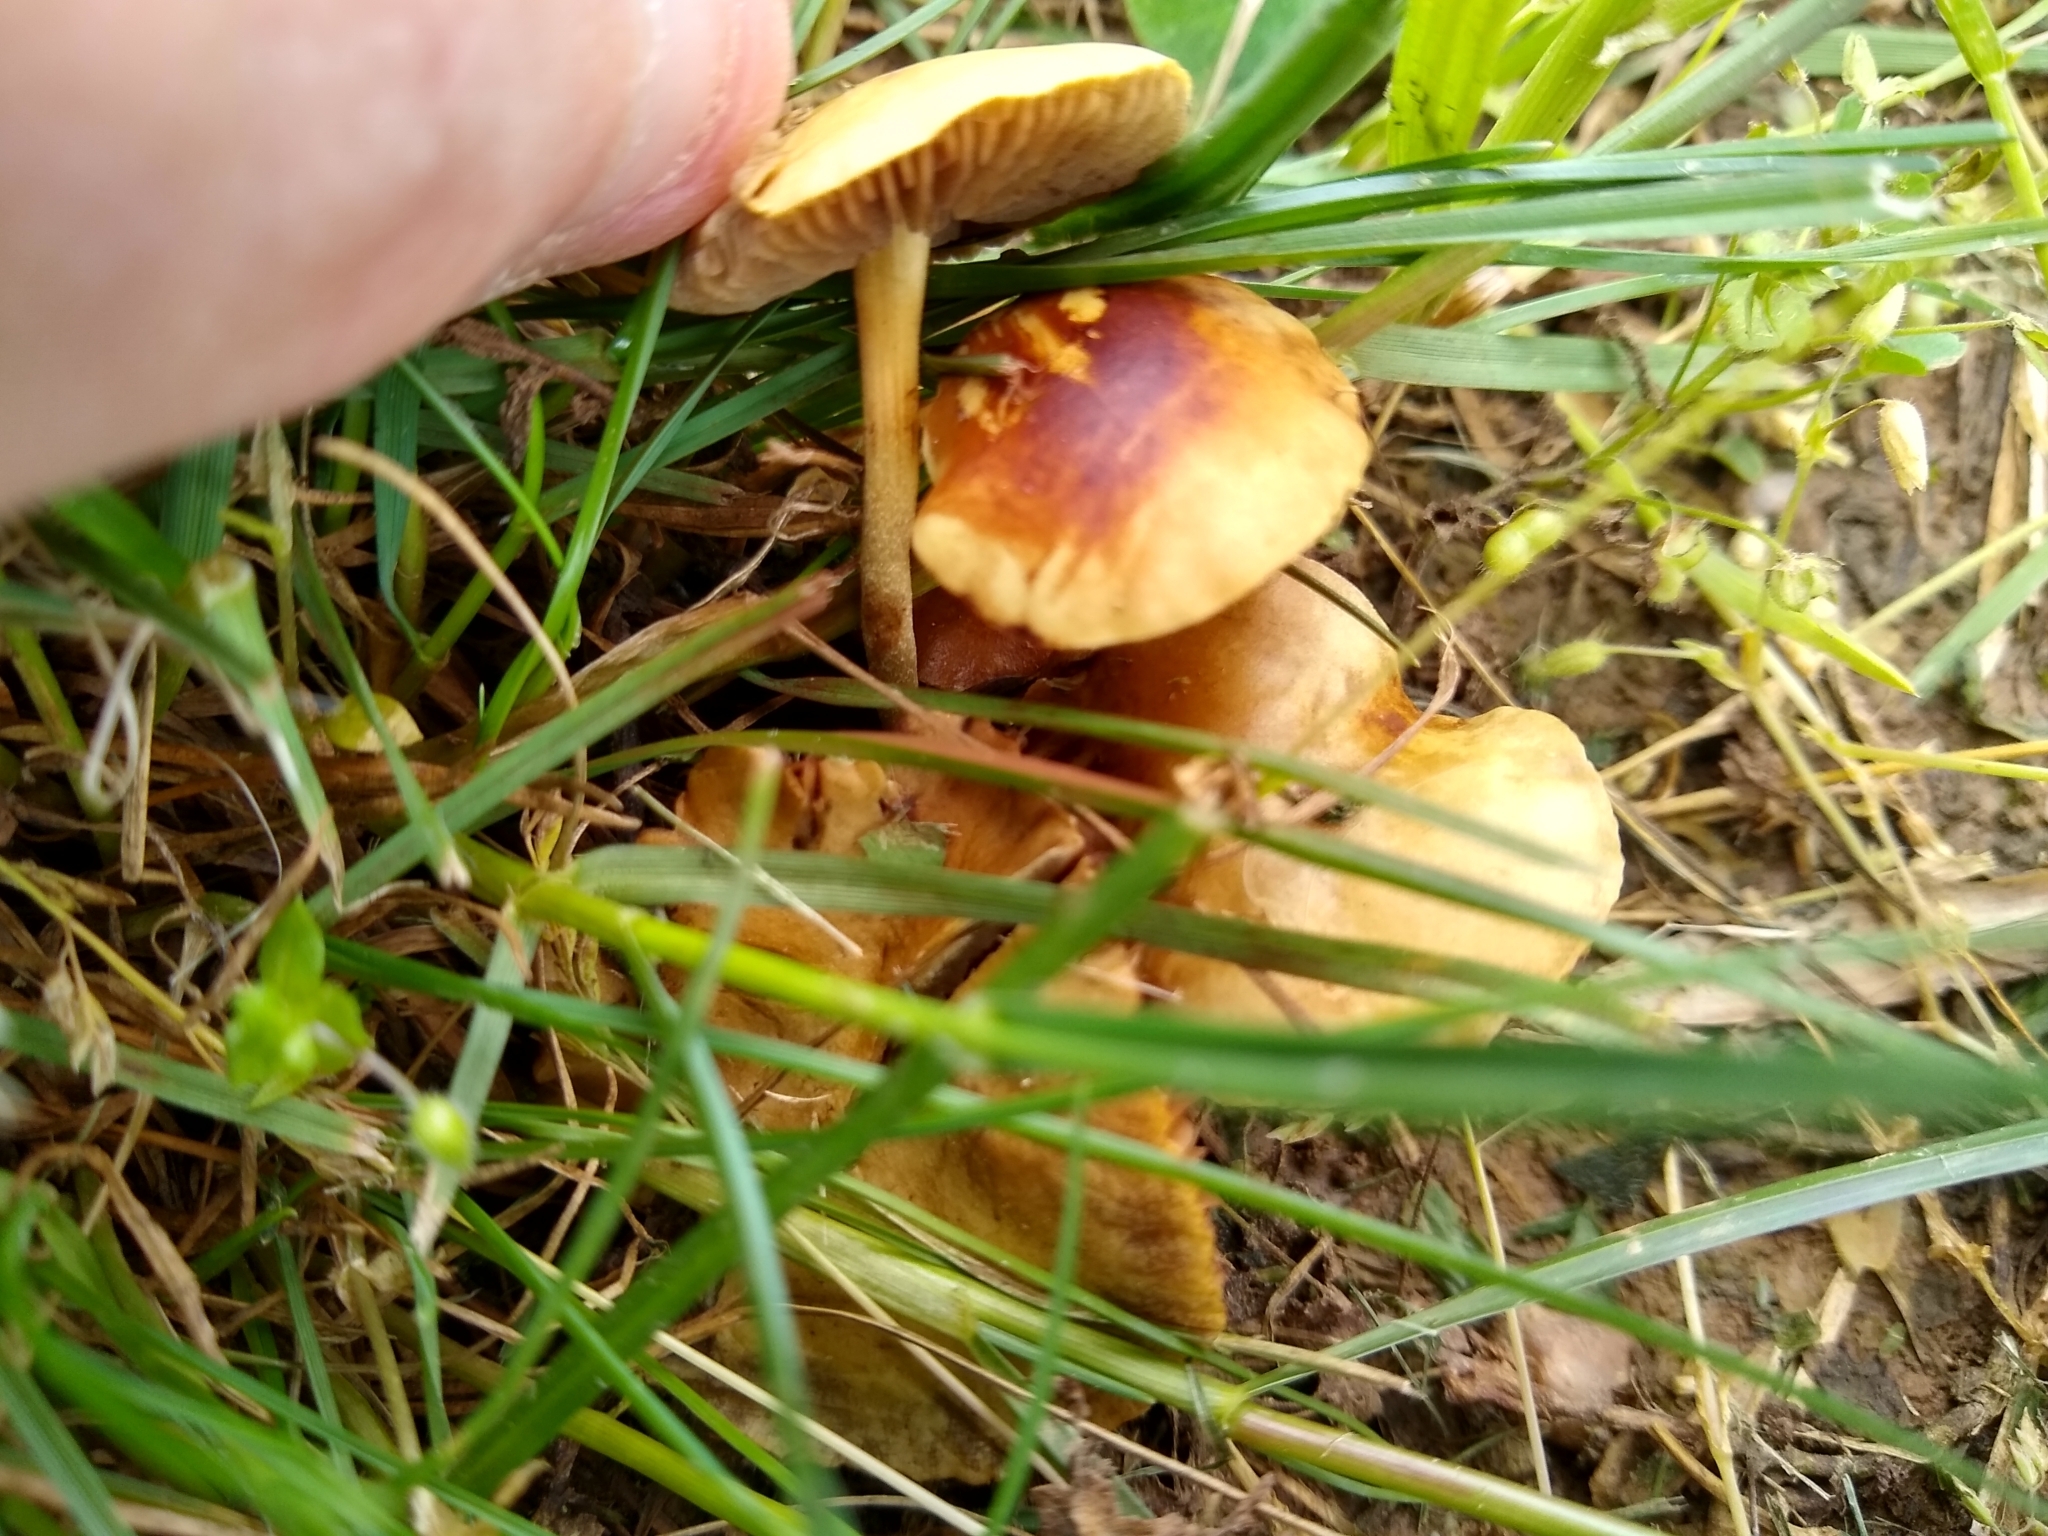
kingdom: Fungi
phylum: Basidiomycota
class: Agaricomycetes
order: Agaricales
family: Strophariaceae
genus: Agrocybe
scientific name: Agrocybe pediades
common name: Common fieldcap
